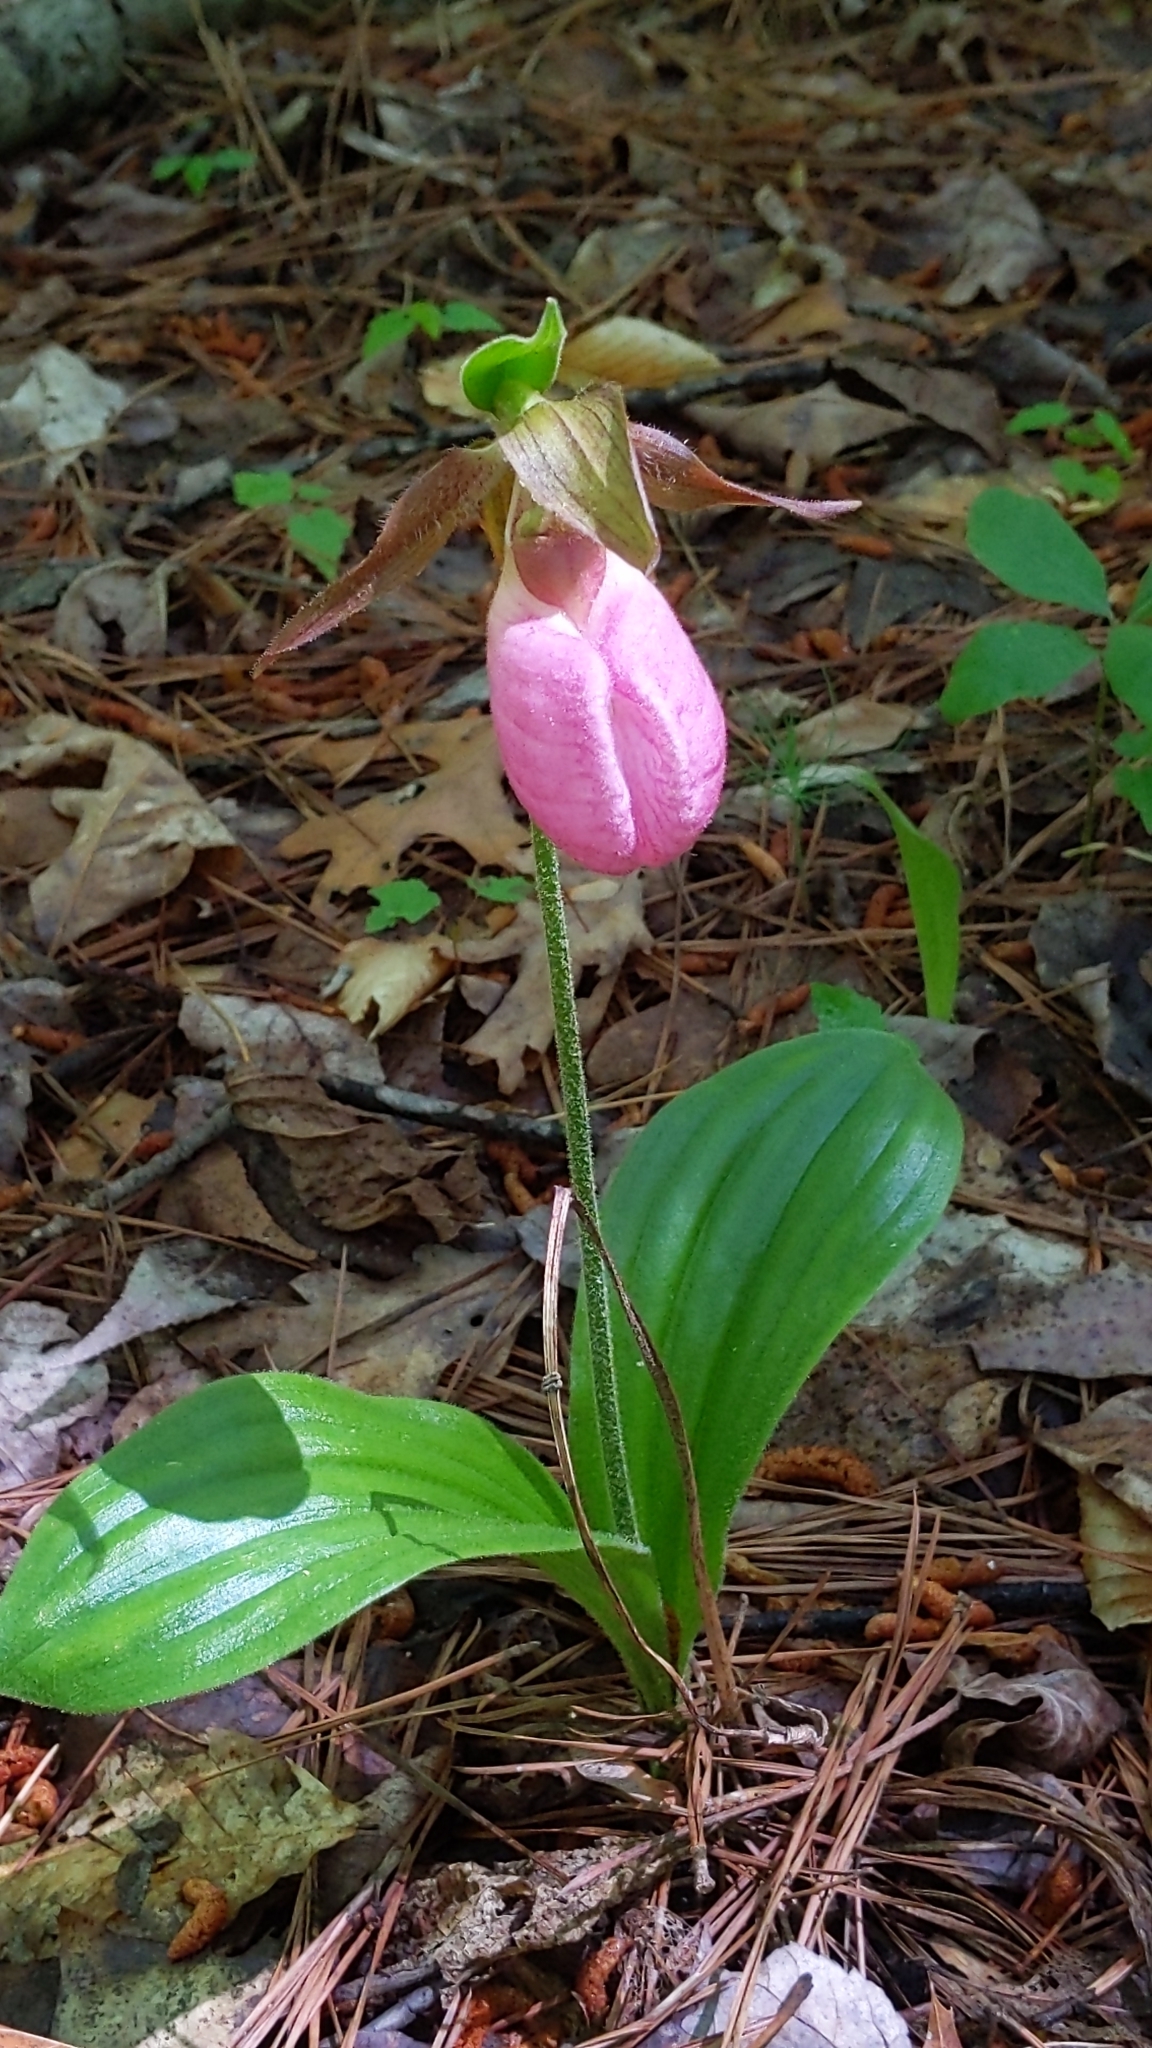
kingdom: Plantae
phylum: Tracheophyta
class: Liliopsida
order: Asparagales
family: Orchidaceae
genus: Cypripedium
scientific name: Cypripedium acaule
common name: Pink lady's-slipper
